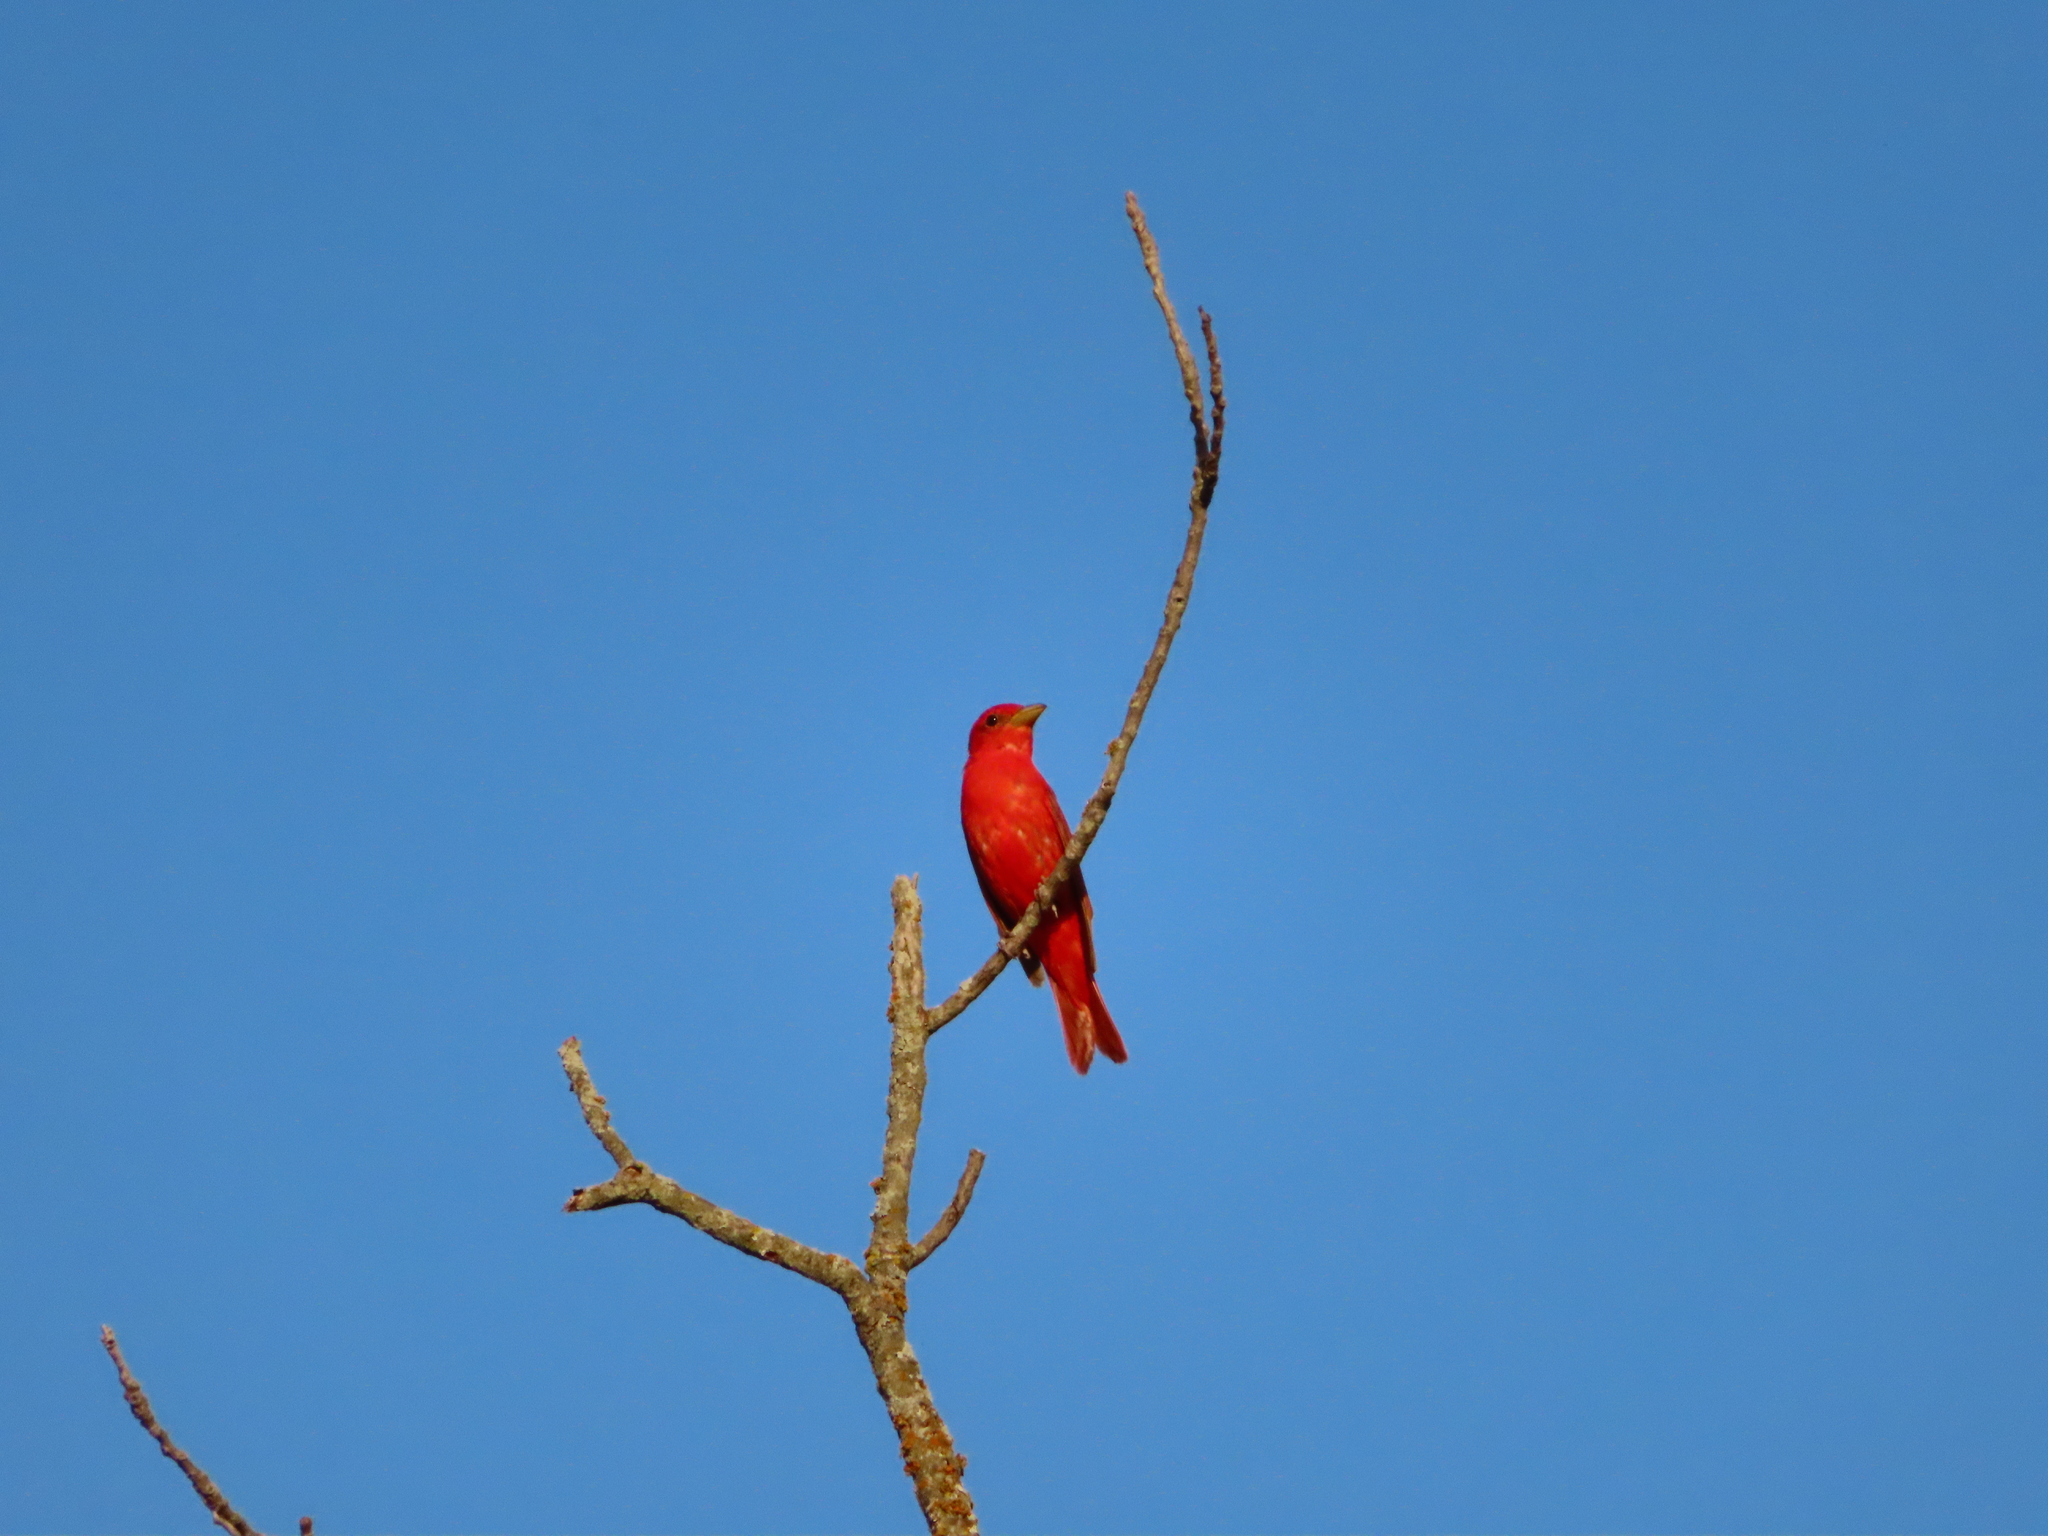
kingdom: Animalia
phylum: Chordata
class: Aves
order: Passeriformes
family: Cardinalidae
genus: Piranga
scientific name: Piranga rubra
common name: Summer tanager
